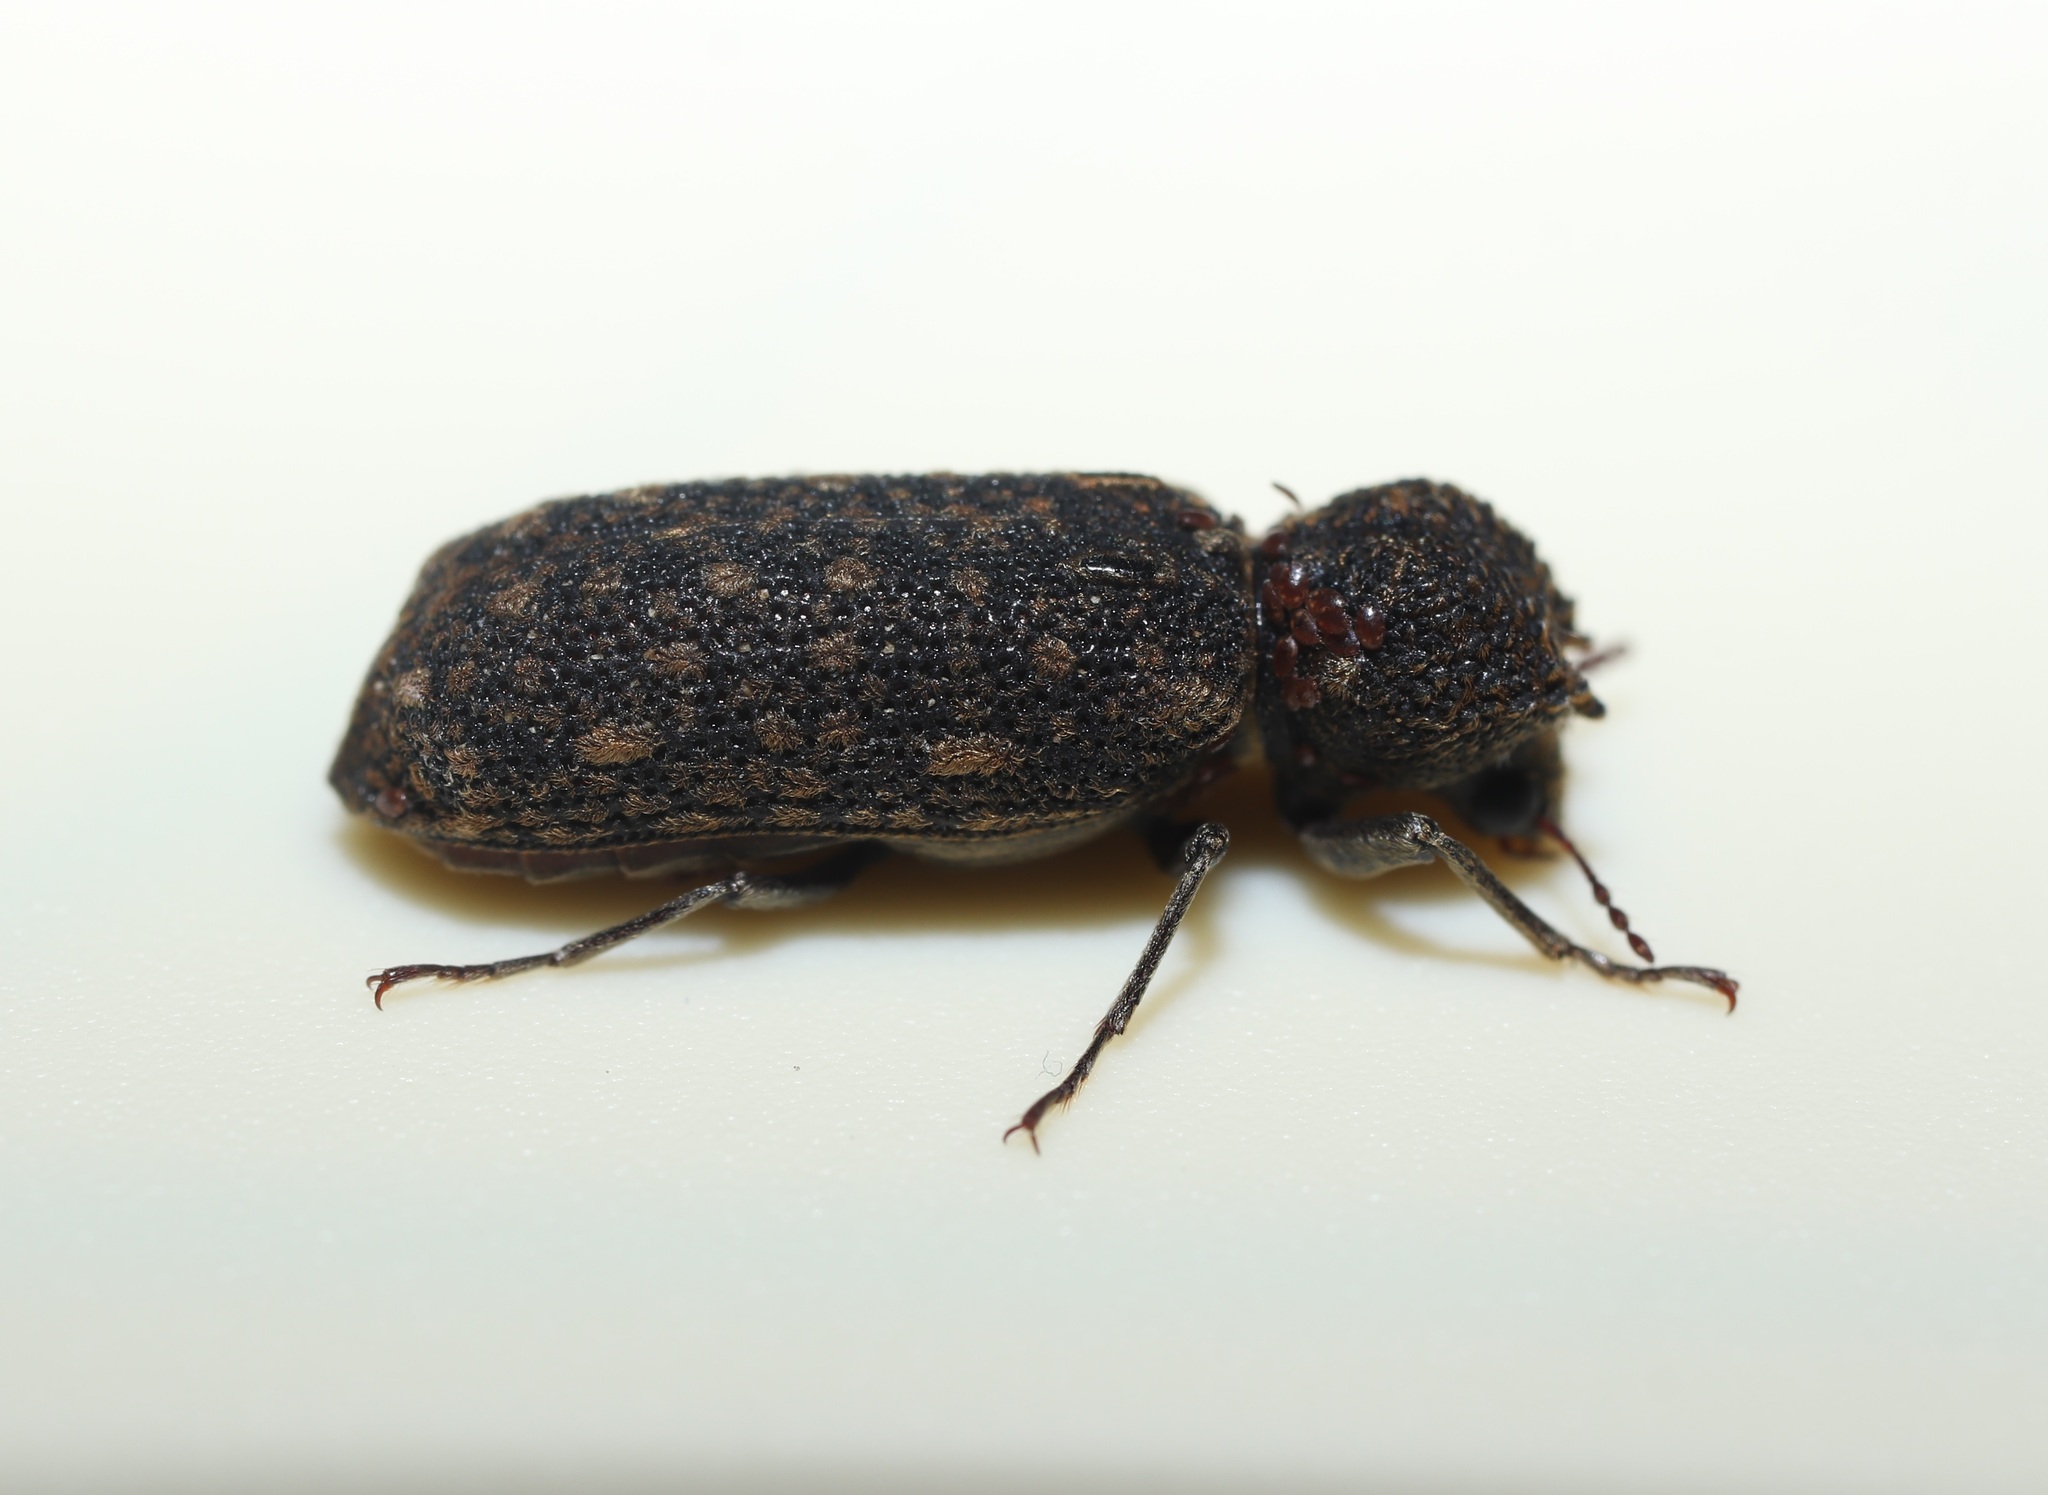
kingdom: Animalia
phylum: Arthropoda
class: Insecta
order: Coleoptera
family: Bostrichidae
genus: Lichenophanes
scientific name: Lichenophanes carinipennis
